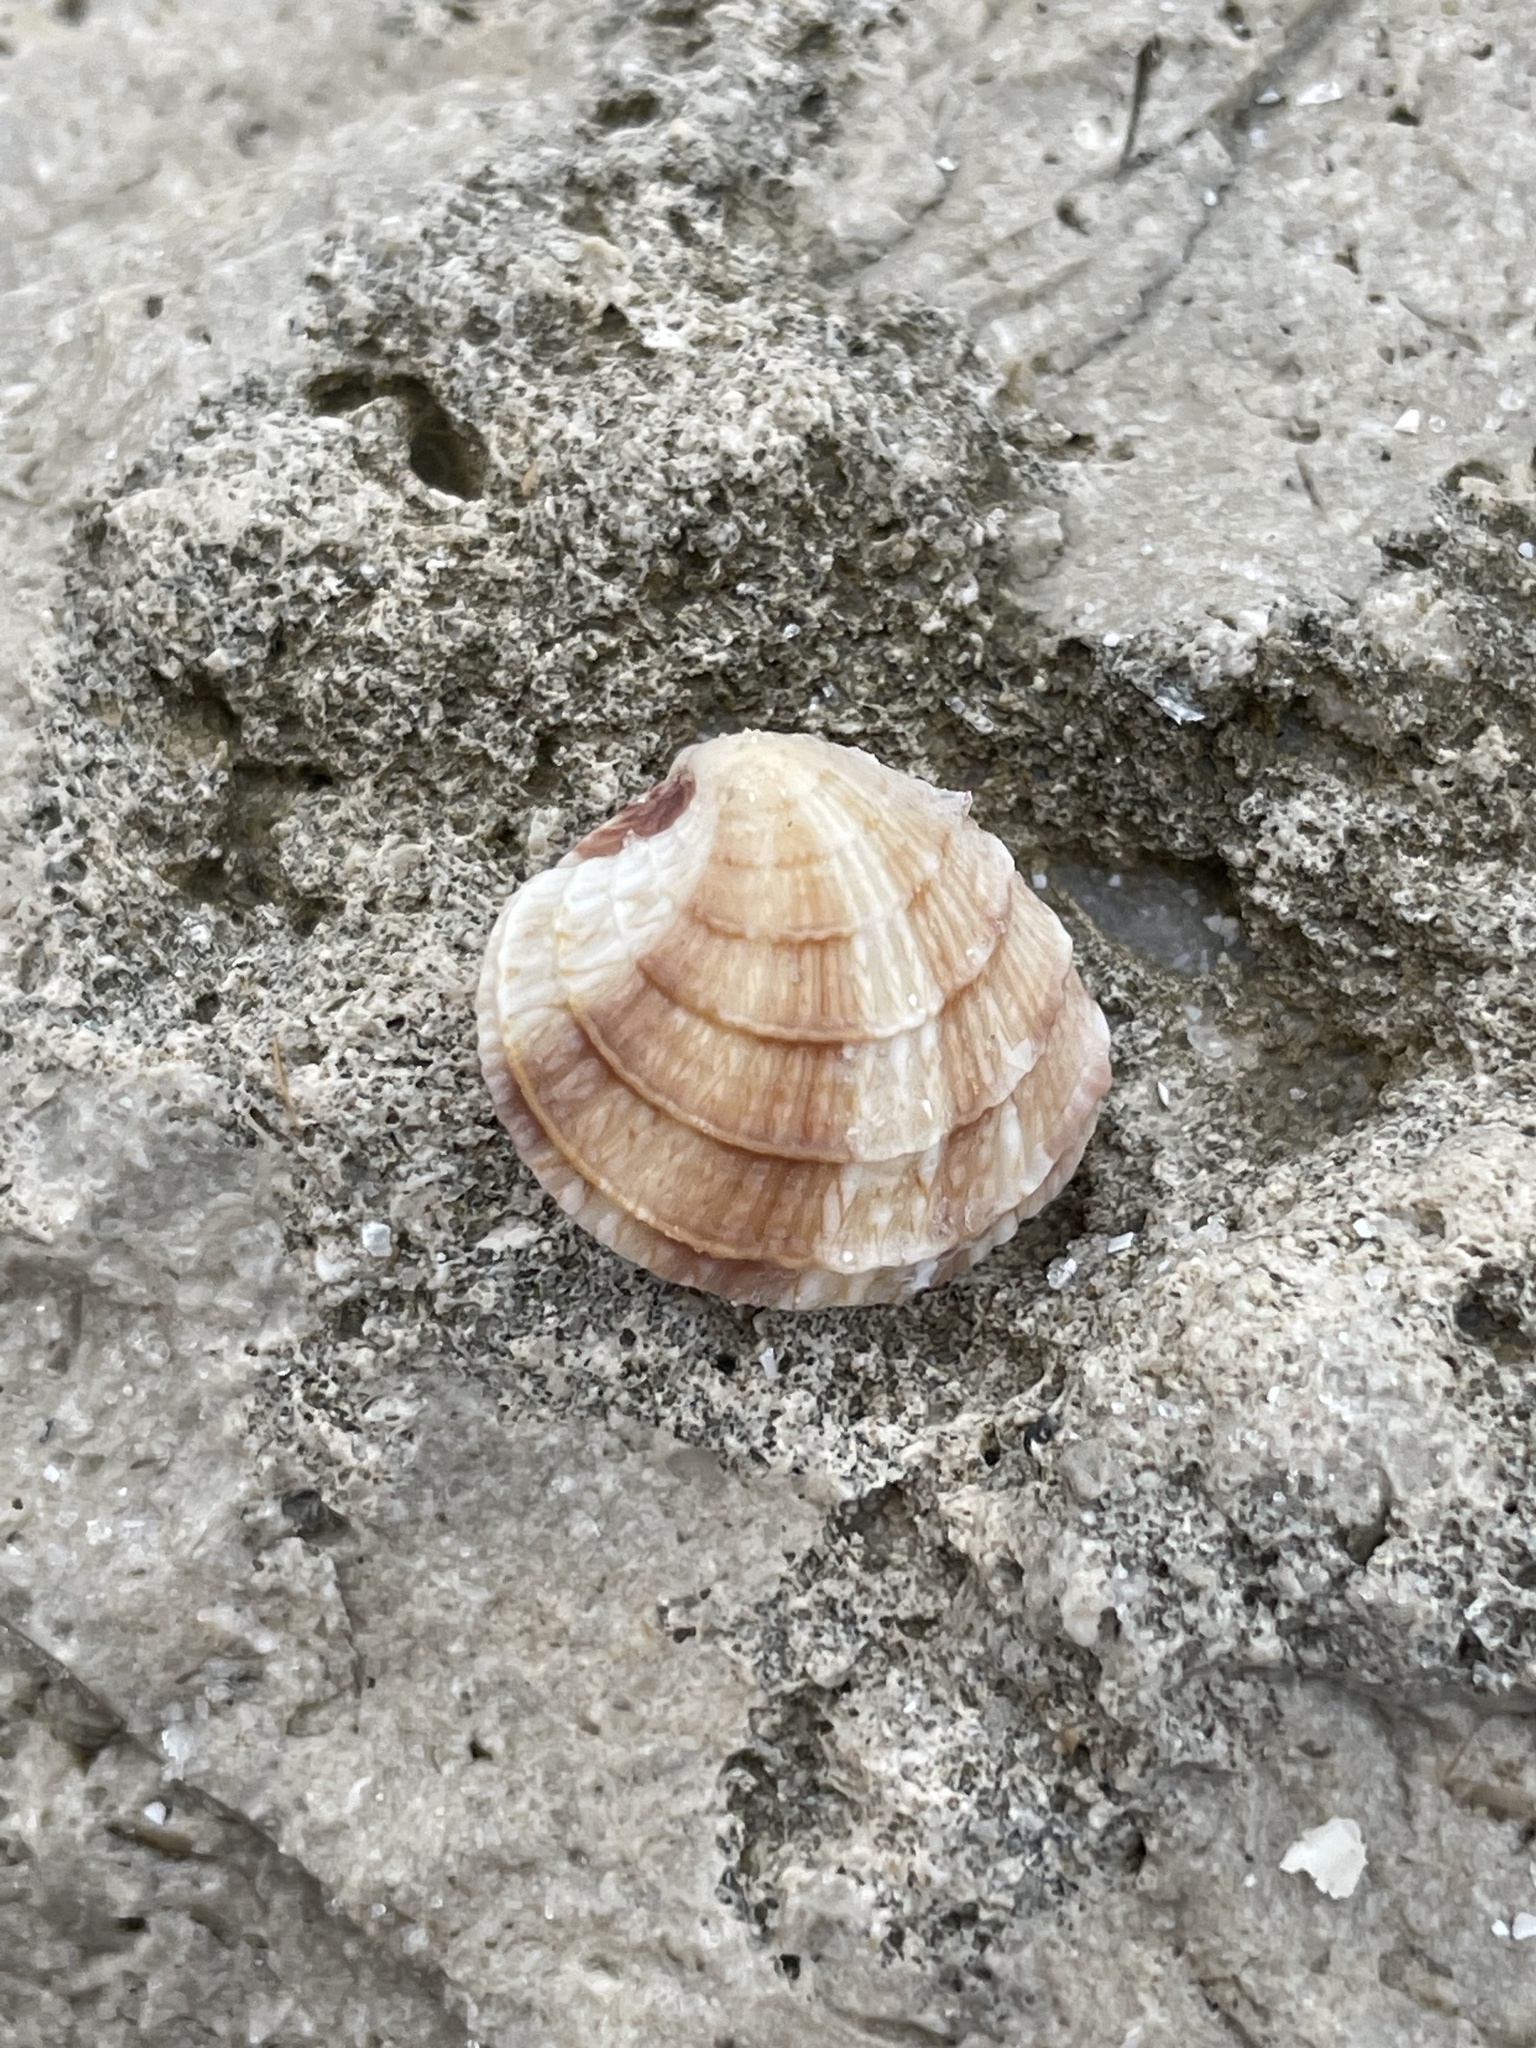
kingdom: Animalia
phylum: Mollusca
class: Bivalvia
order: Venerida
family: Veneridae
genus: Chione
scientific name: Chione elevata
